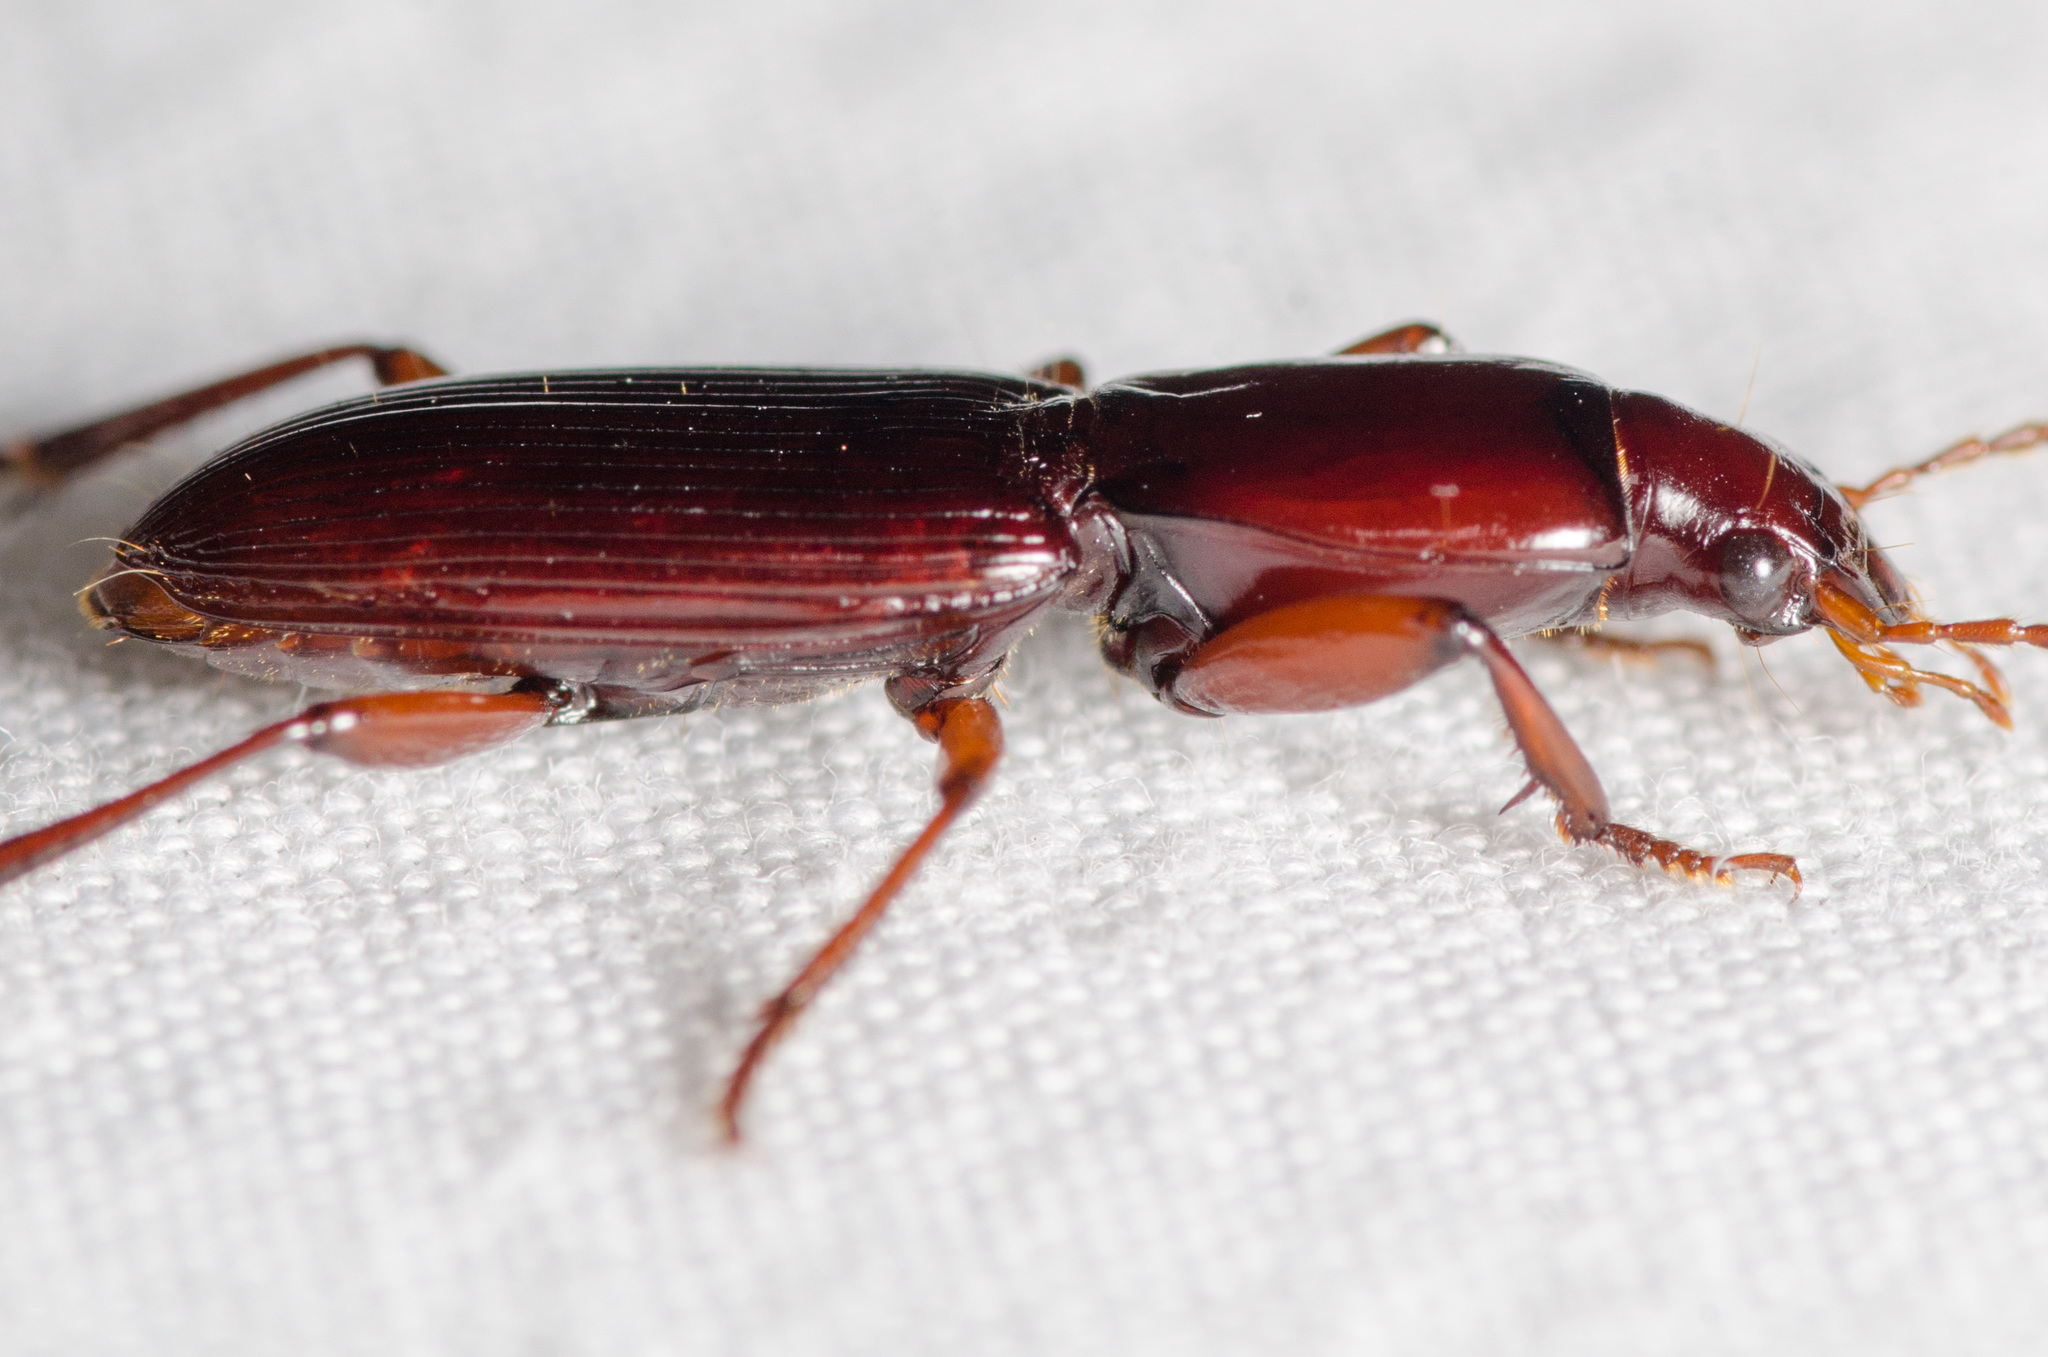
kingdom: Animalia
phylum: Arthropoda
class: Insecta
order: Coleoptera
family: Carabidae
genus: Stenomorphus
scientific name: Stenomorphus californicus
